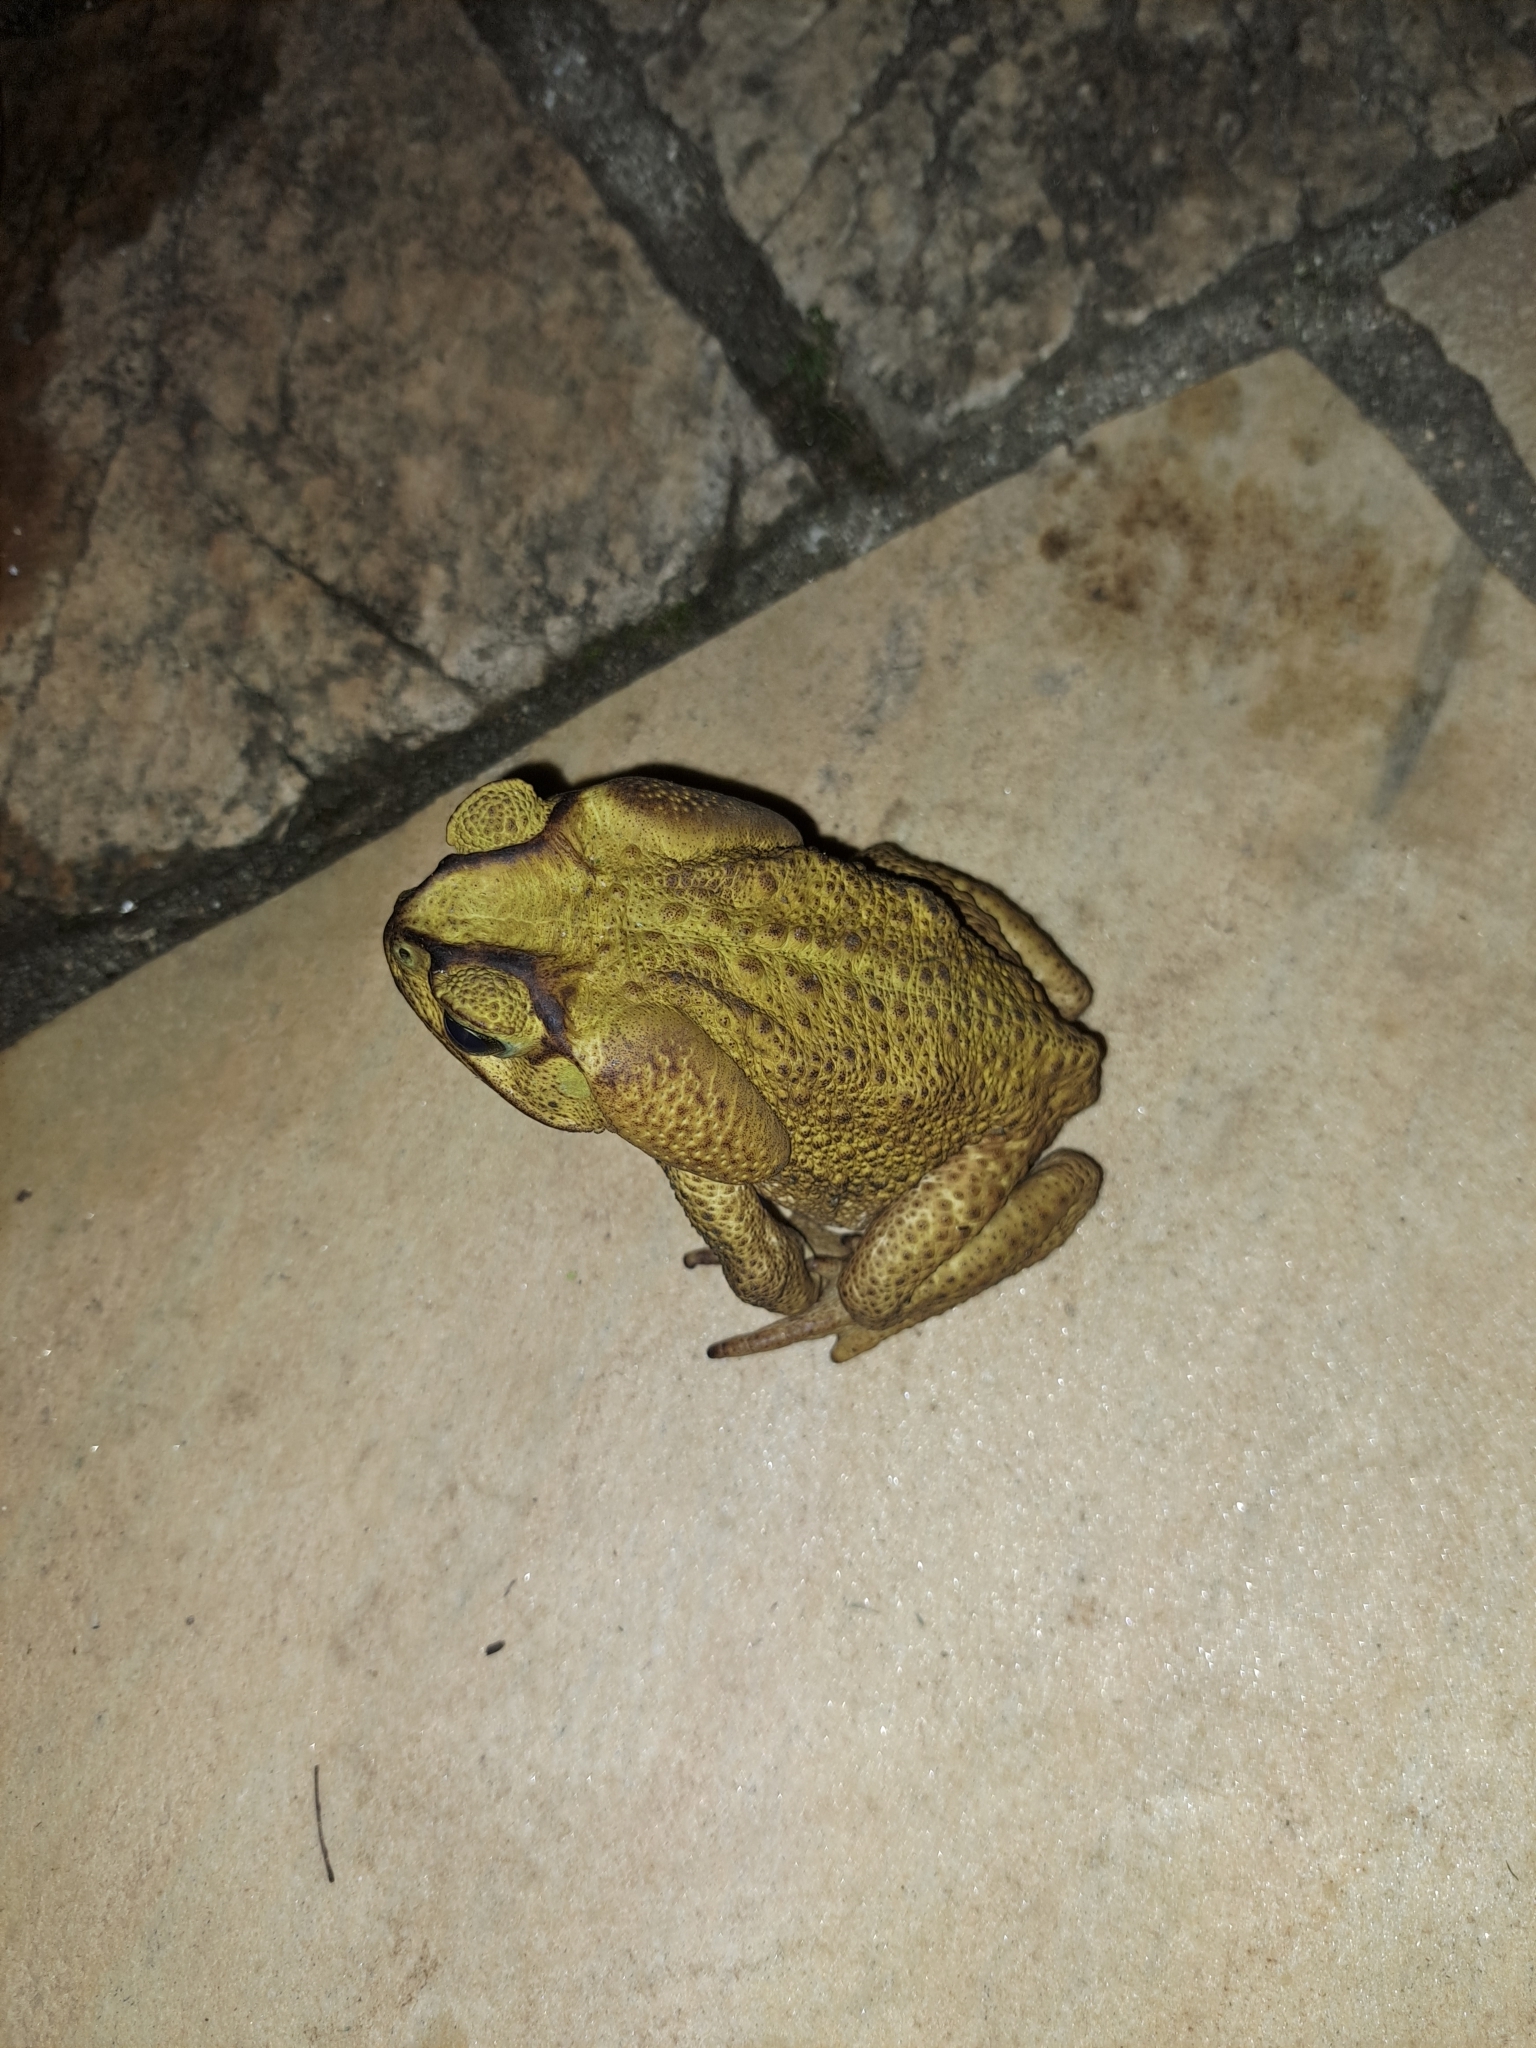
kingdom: Animalia
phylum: Chordata
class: Amphibia
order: Anura
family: Bufonidae
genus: Rhinella
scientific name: Rhinella icterica
